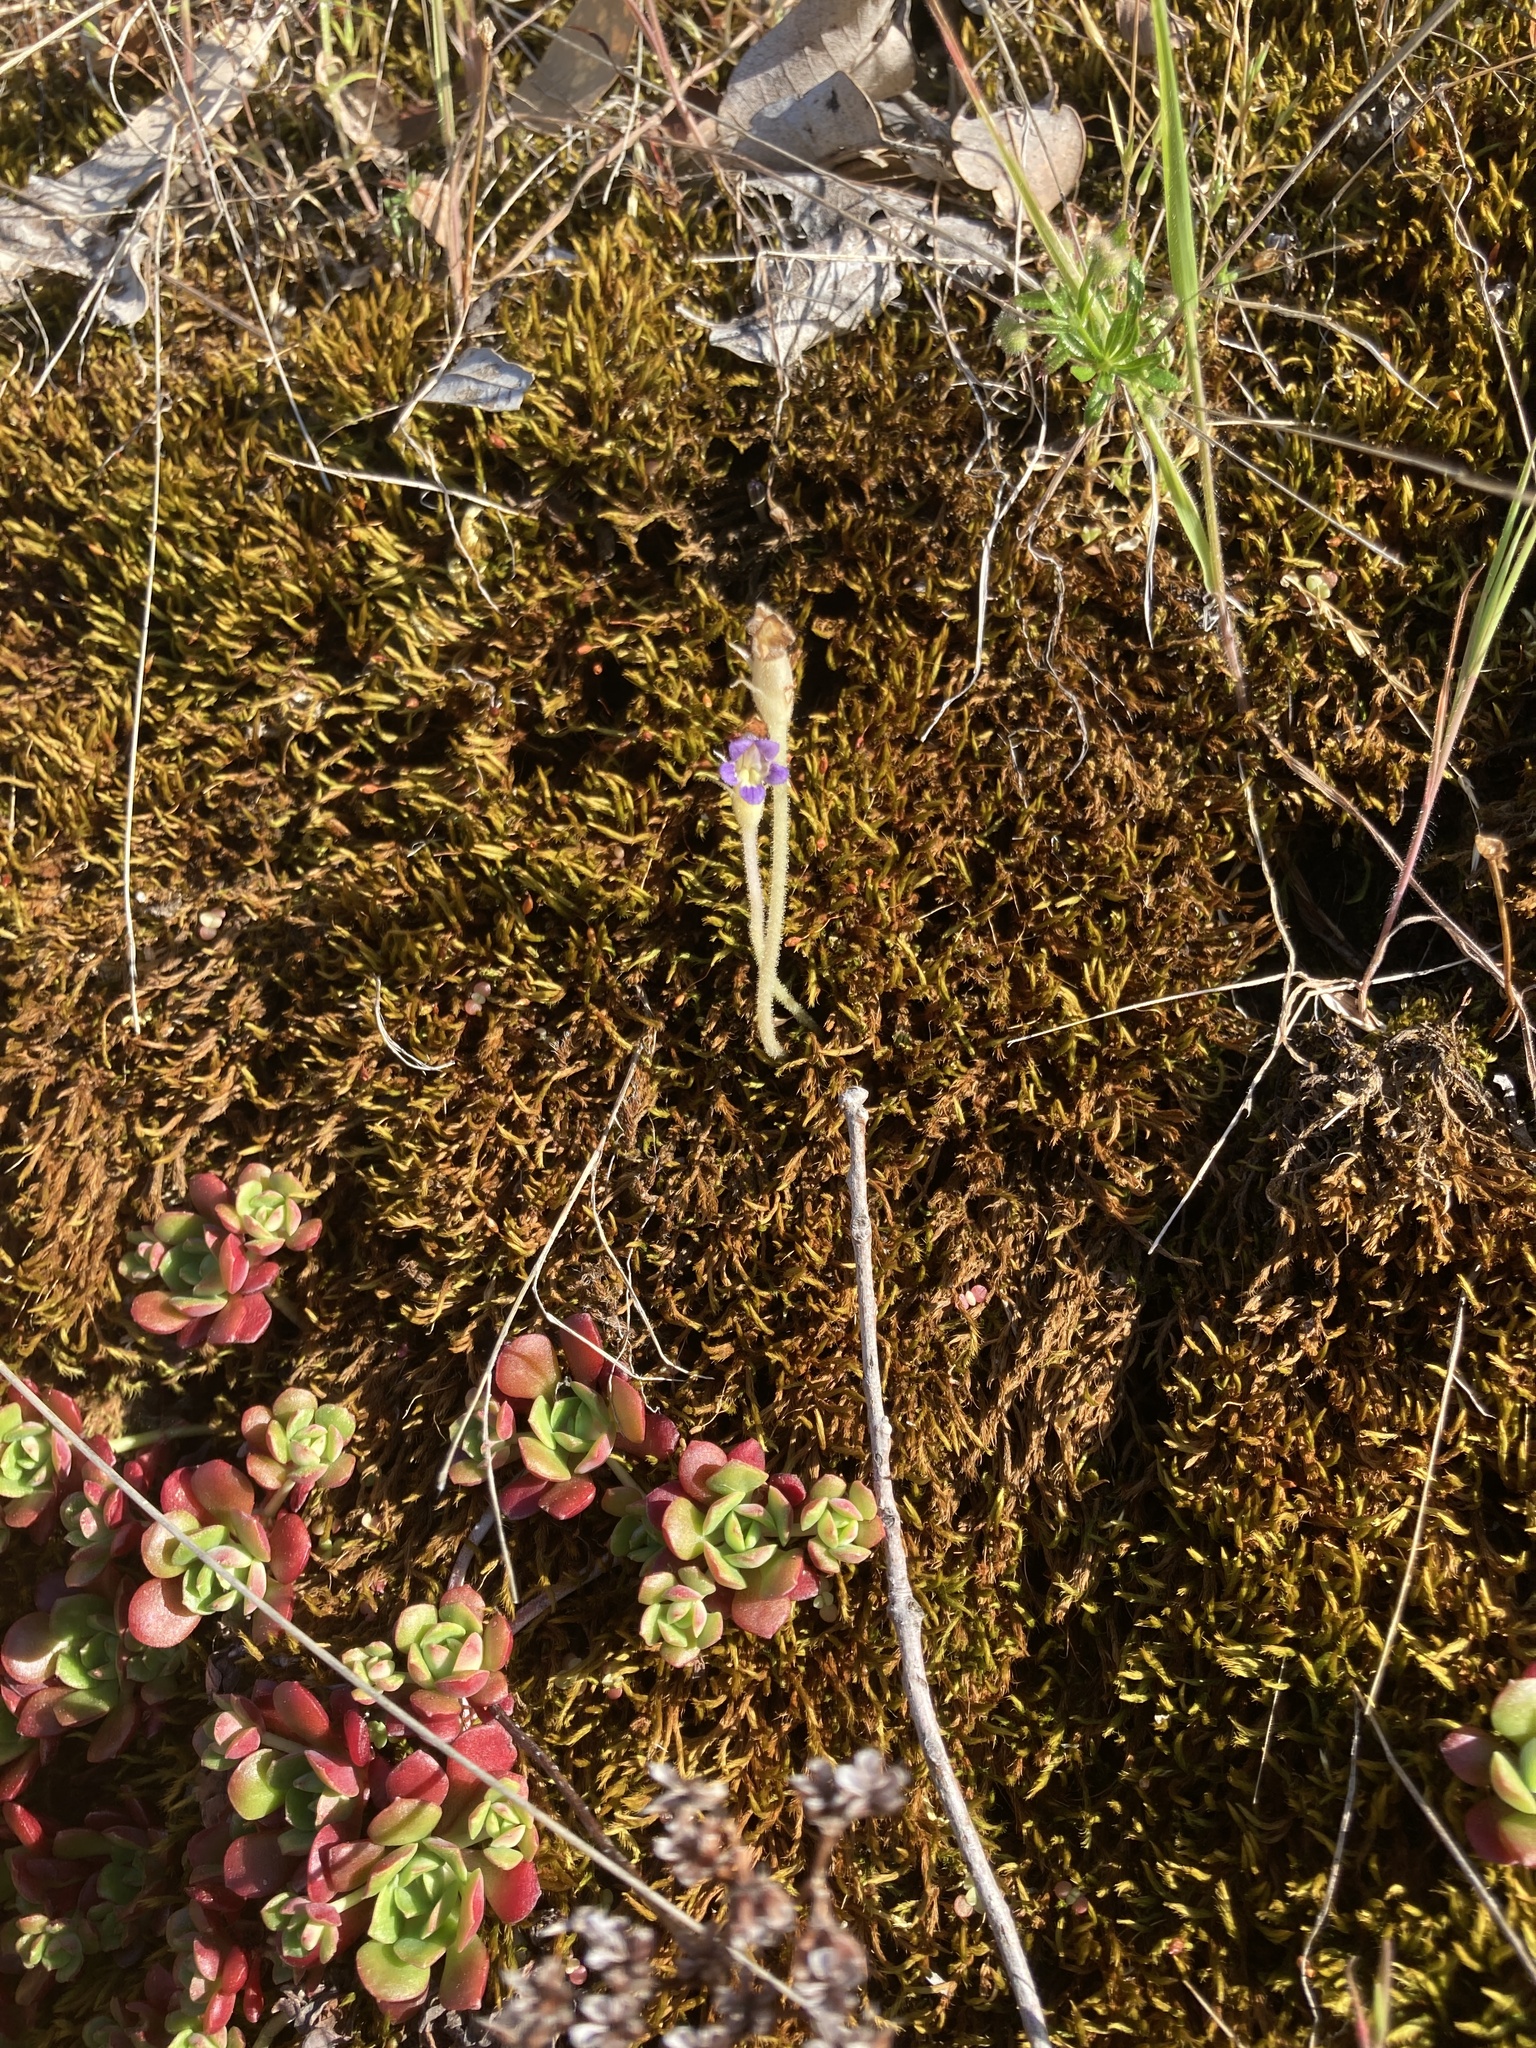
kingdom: Plantae
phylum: Tracheophyta
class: Magnoliopsida
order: Lamiales
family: Orobanchaceae
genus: Aphyllon
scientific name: Aphyllon uniflorum
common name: One-flowered broomrape
